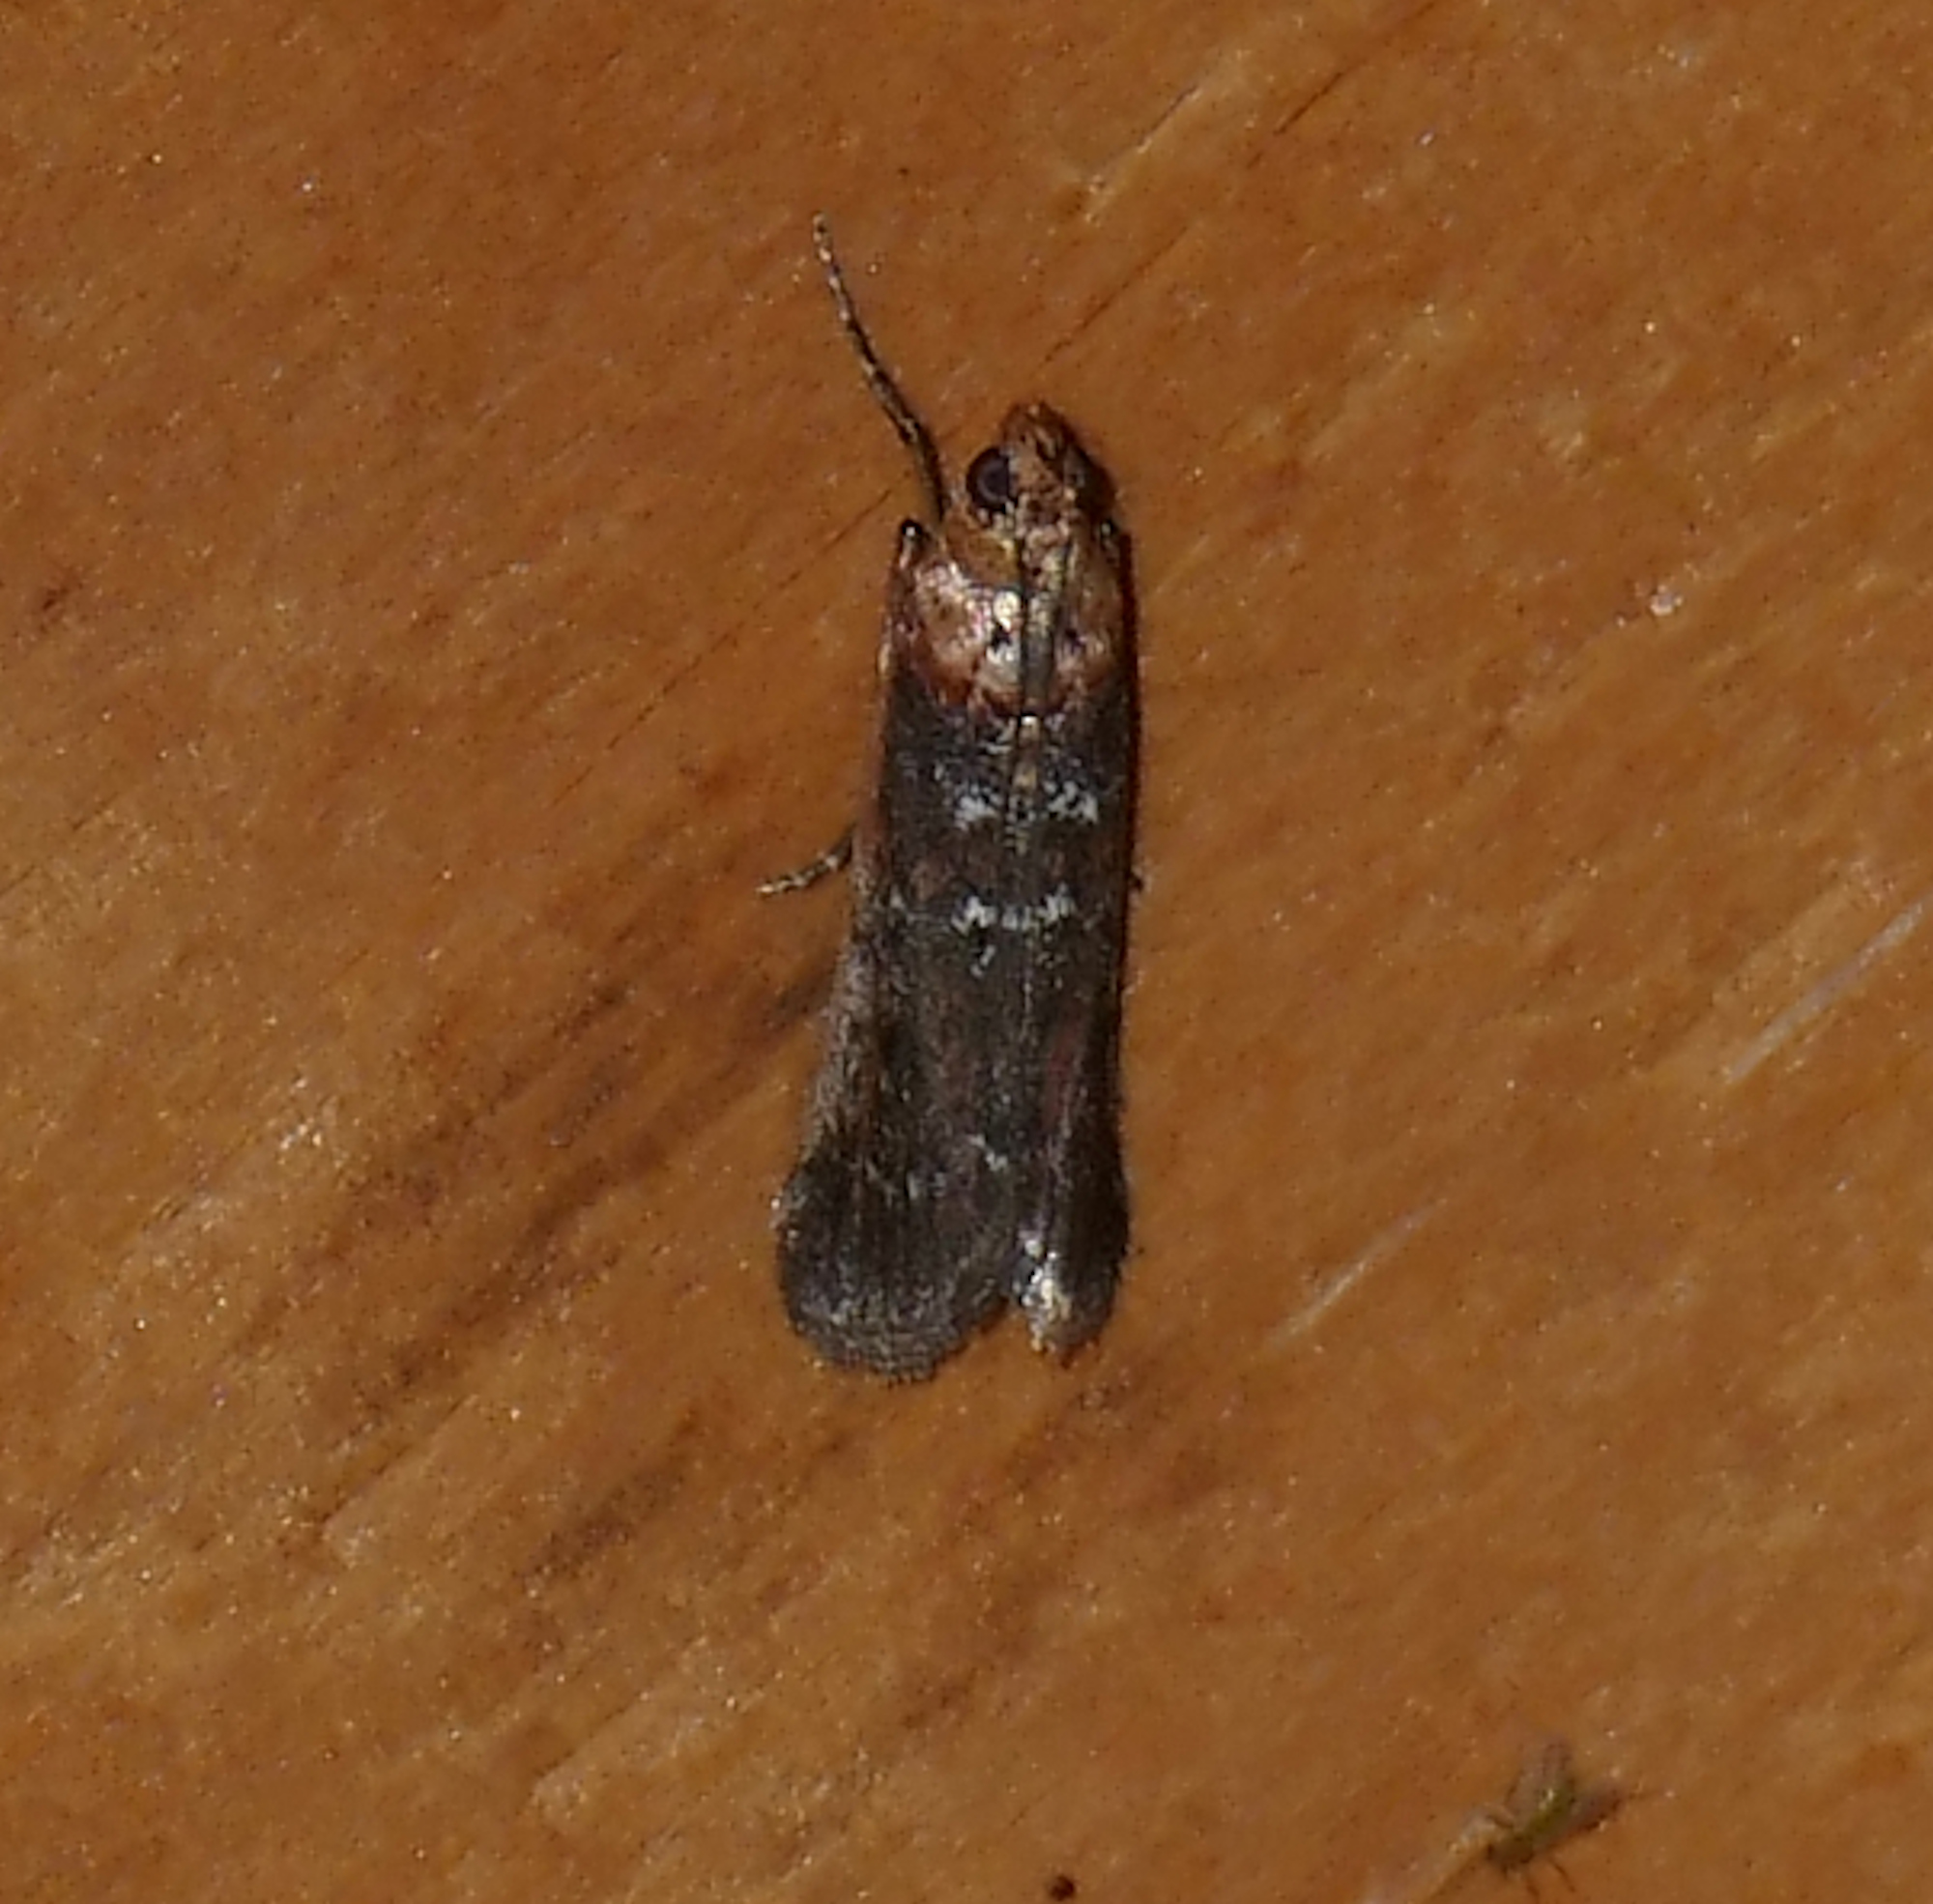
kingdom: Animalia
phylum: Arthropoda
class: Insecta
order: Lepidoptera
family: Pyralidae
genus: Adelphia
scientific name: Adelphia petrella
